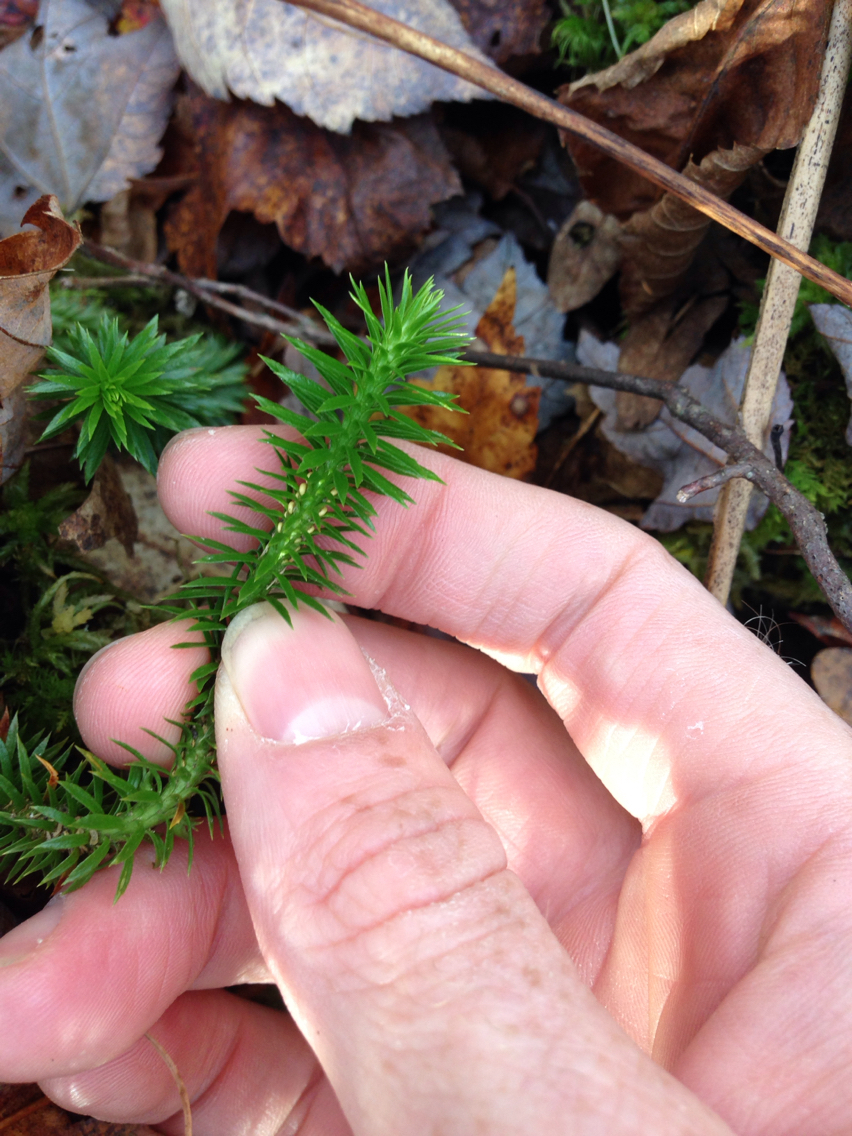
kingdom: Plantae
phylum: Tracheophyta
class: Lycopodiopsida
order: Lycopodiales
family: Lycopodiaceae
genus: Huperzia
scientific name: Huperzia lucidula
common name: Shining clubmoss
